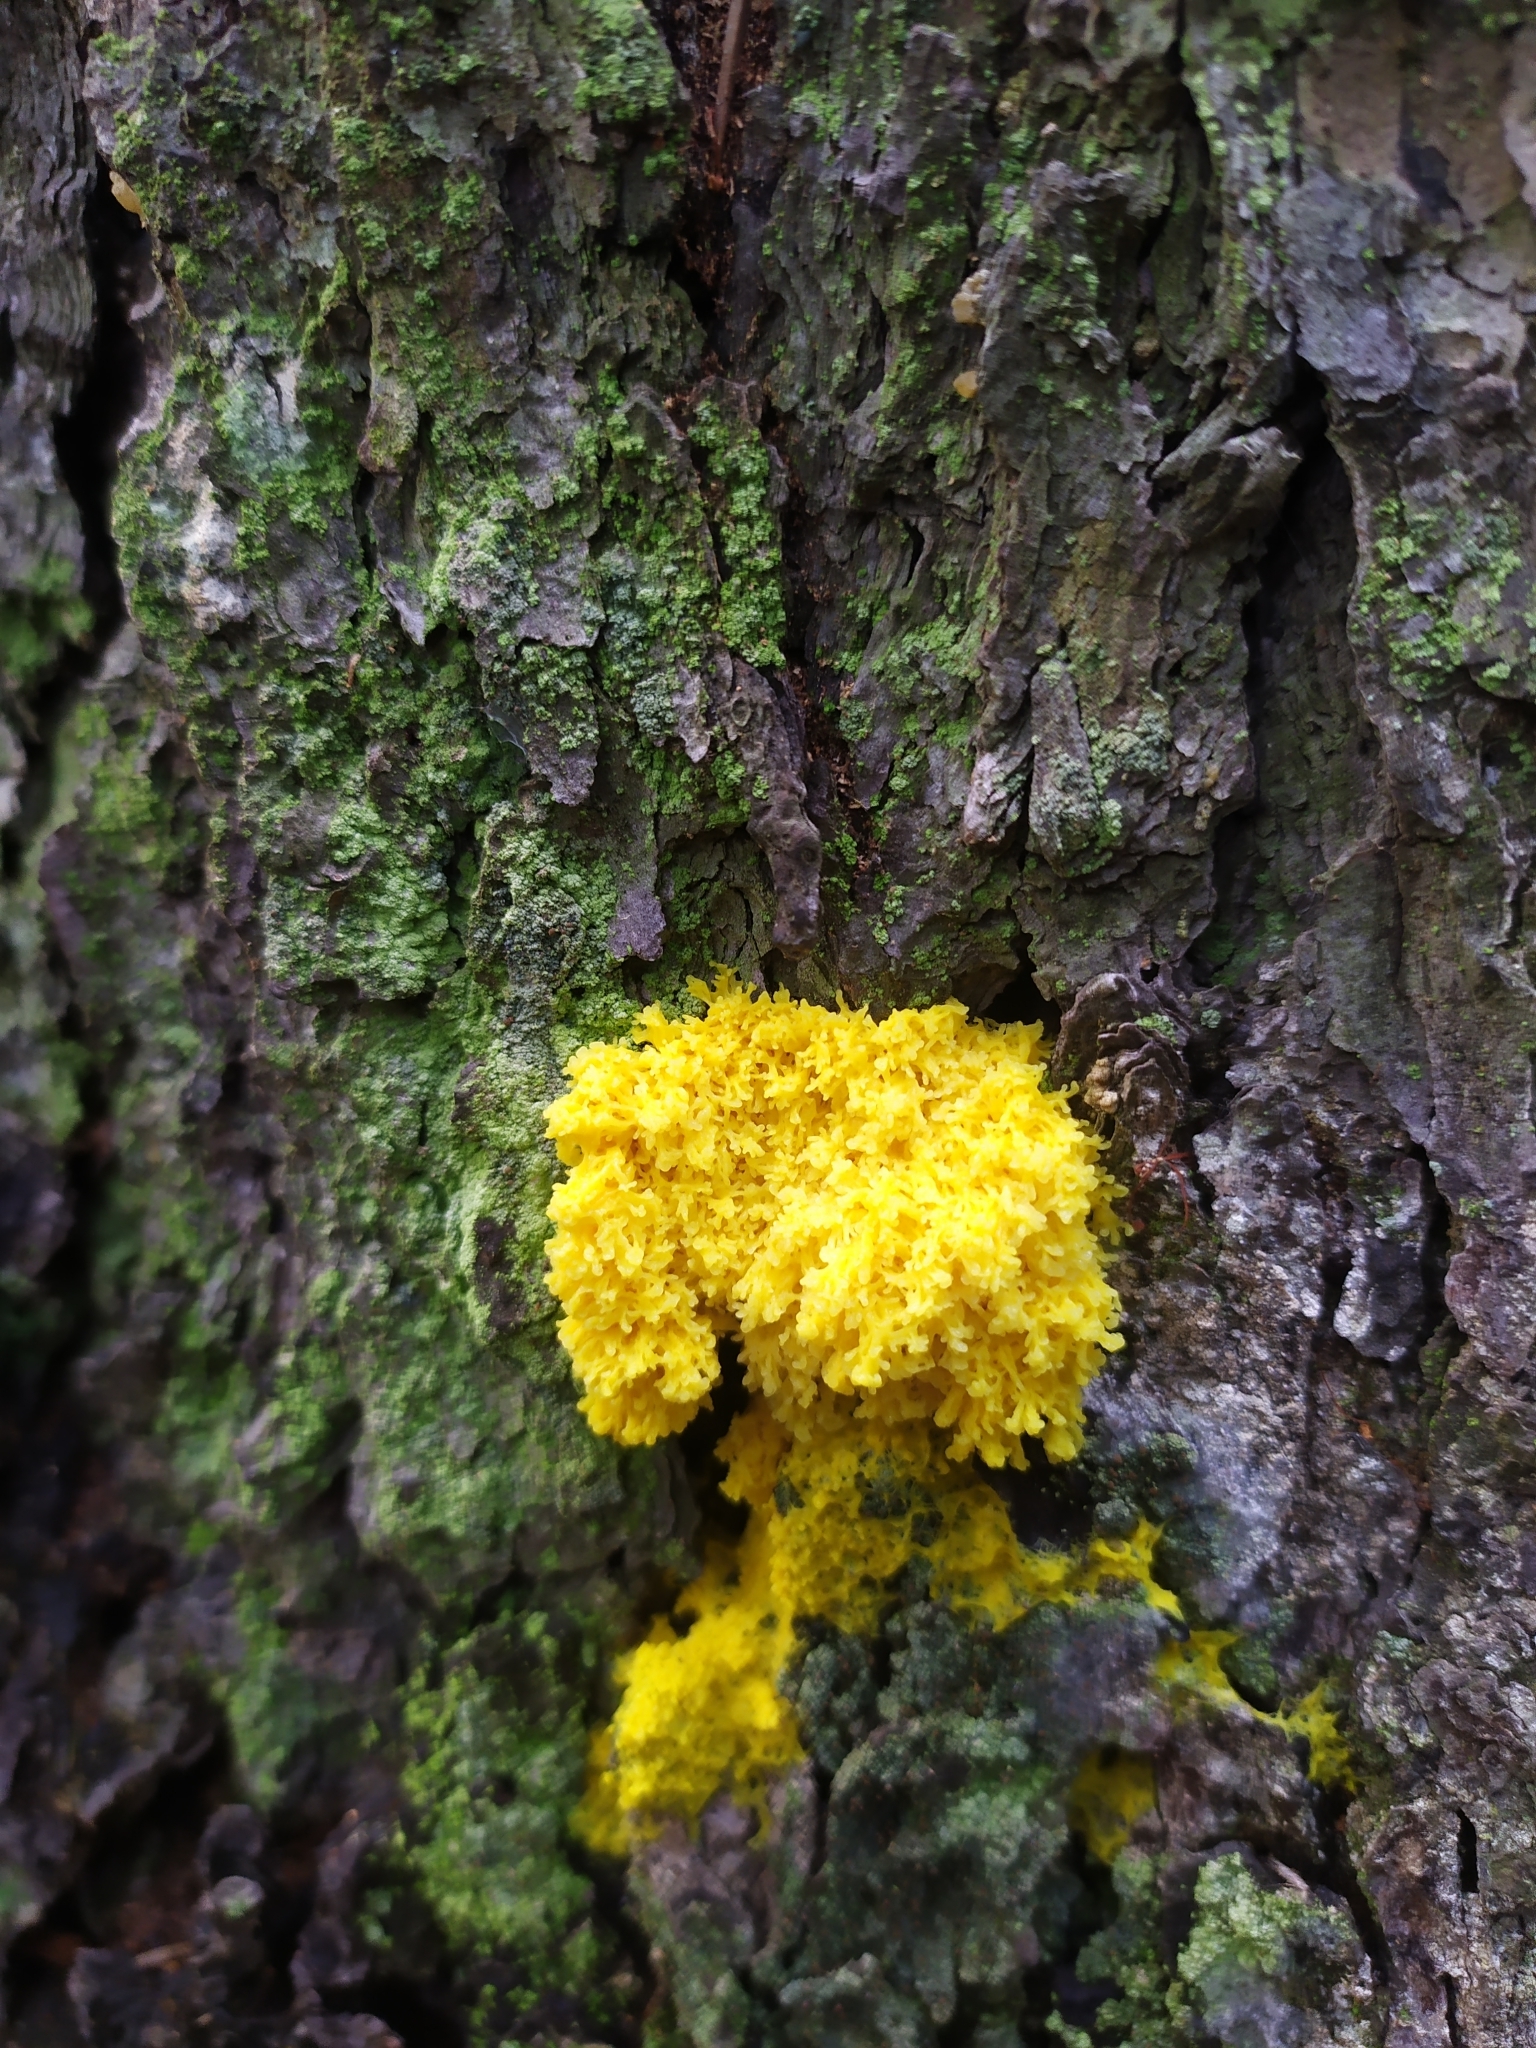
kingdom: Protozoa
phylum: Mycetozoa
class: Myxomycetes
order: Physarales
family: Physaraceae
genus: Fuligo
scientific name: Fuligo septica
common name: Dog vomit slime mold
